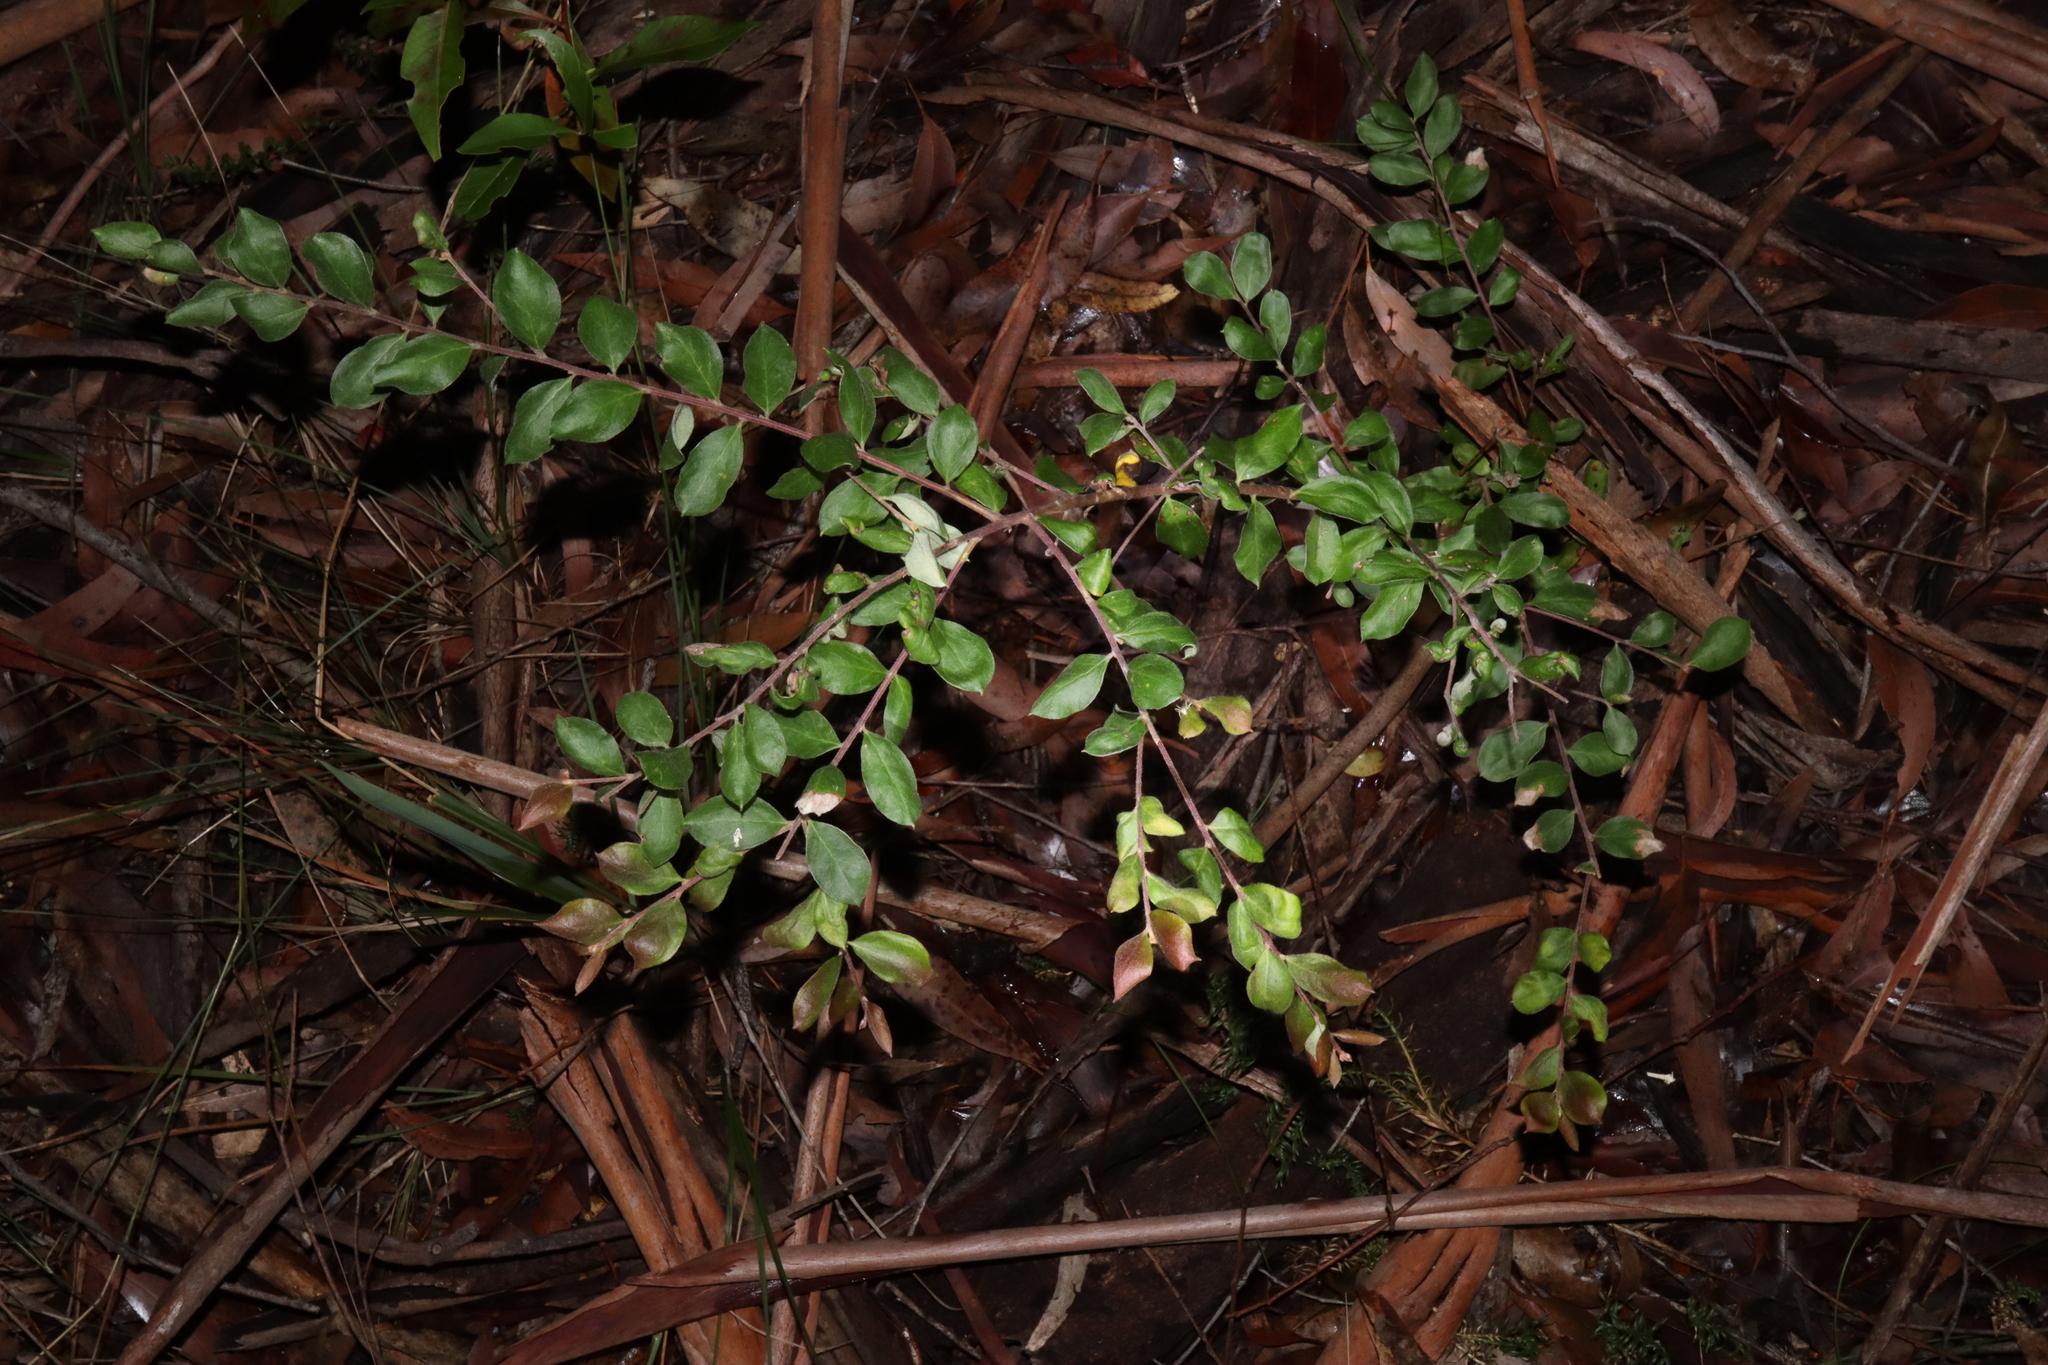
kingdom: Plantae
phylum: Tracheophyta
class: Magnoliopsida
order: Proteales
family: Proteaceae
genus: Grevillea
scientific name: Grevillea mucronulata
